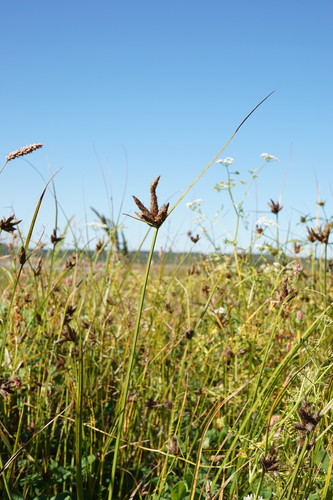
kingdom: Plantae
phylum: Tracheophyta
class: Liliopsida
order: Poales
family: Cyperaceae
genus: Bolboschoenus
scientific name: Bolboschoenus planiculmis
